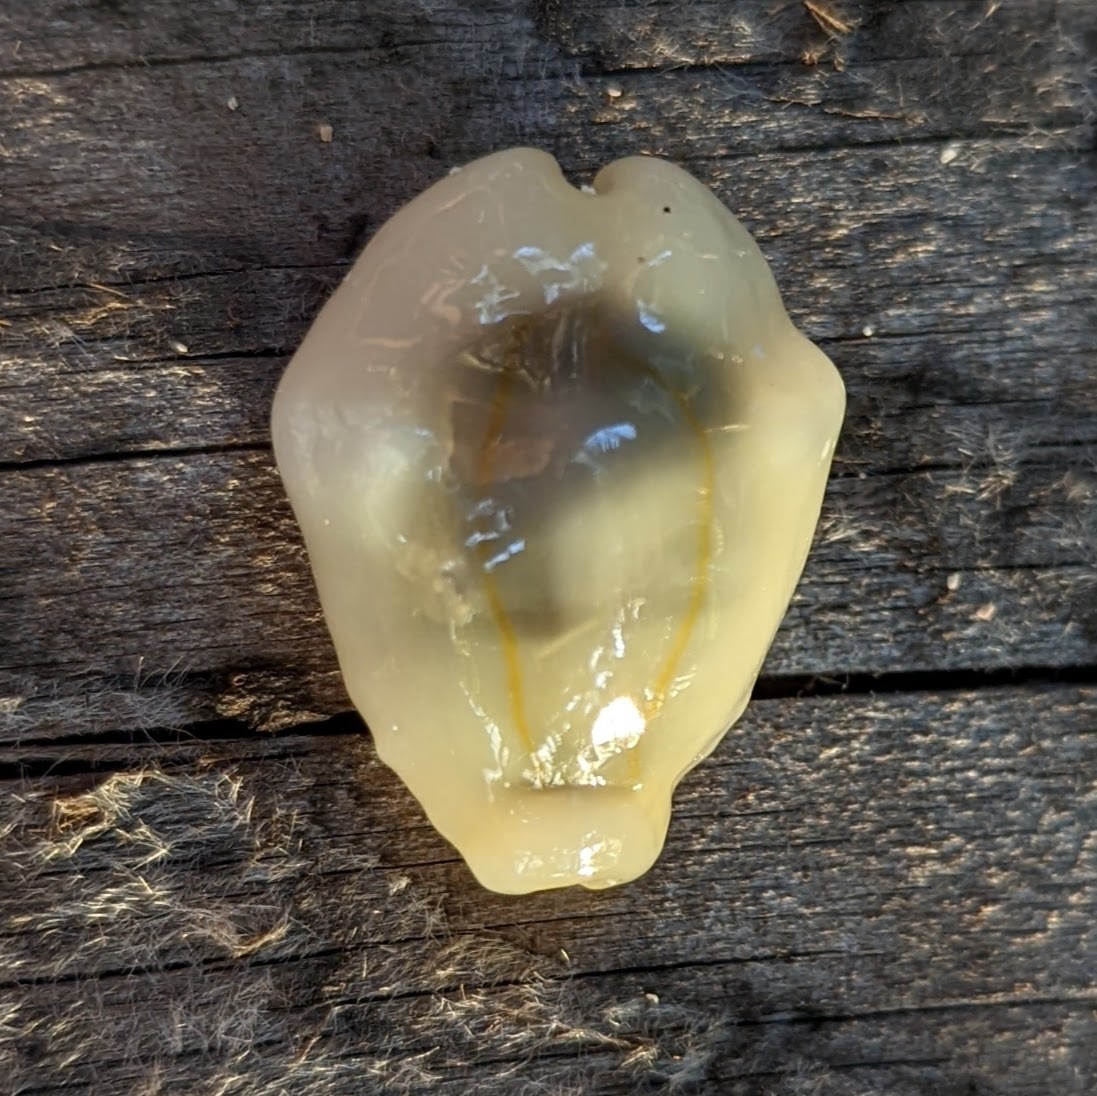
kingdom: Animalia
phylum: Mollusca
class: Gastropoda
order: Littorinimorpha
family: Cypraeidae
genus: Monetaria
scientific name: Monetaria moneta
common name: Money cowrie
